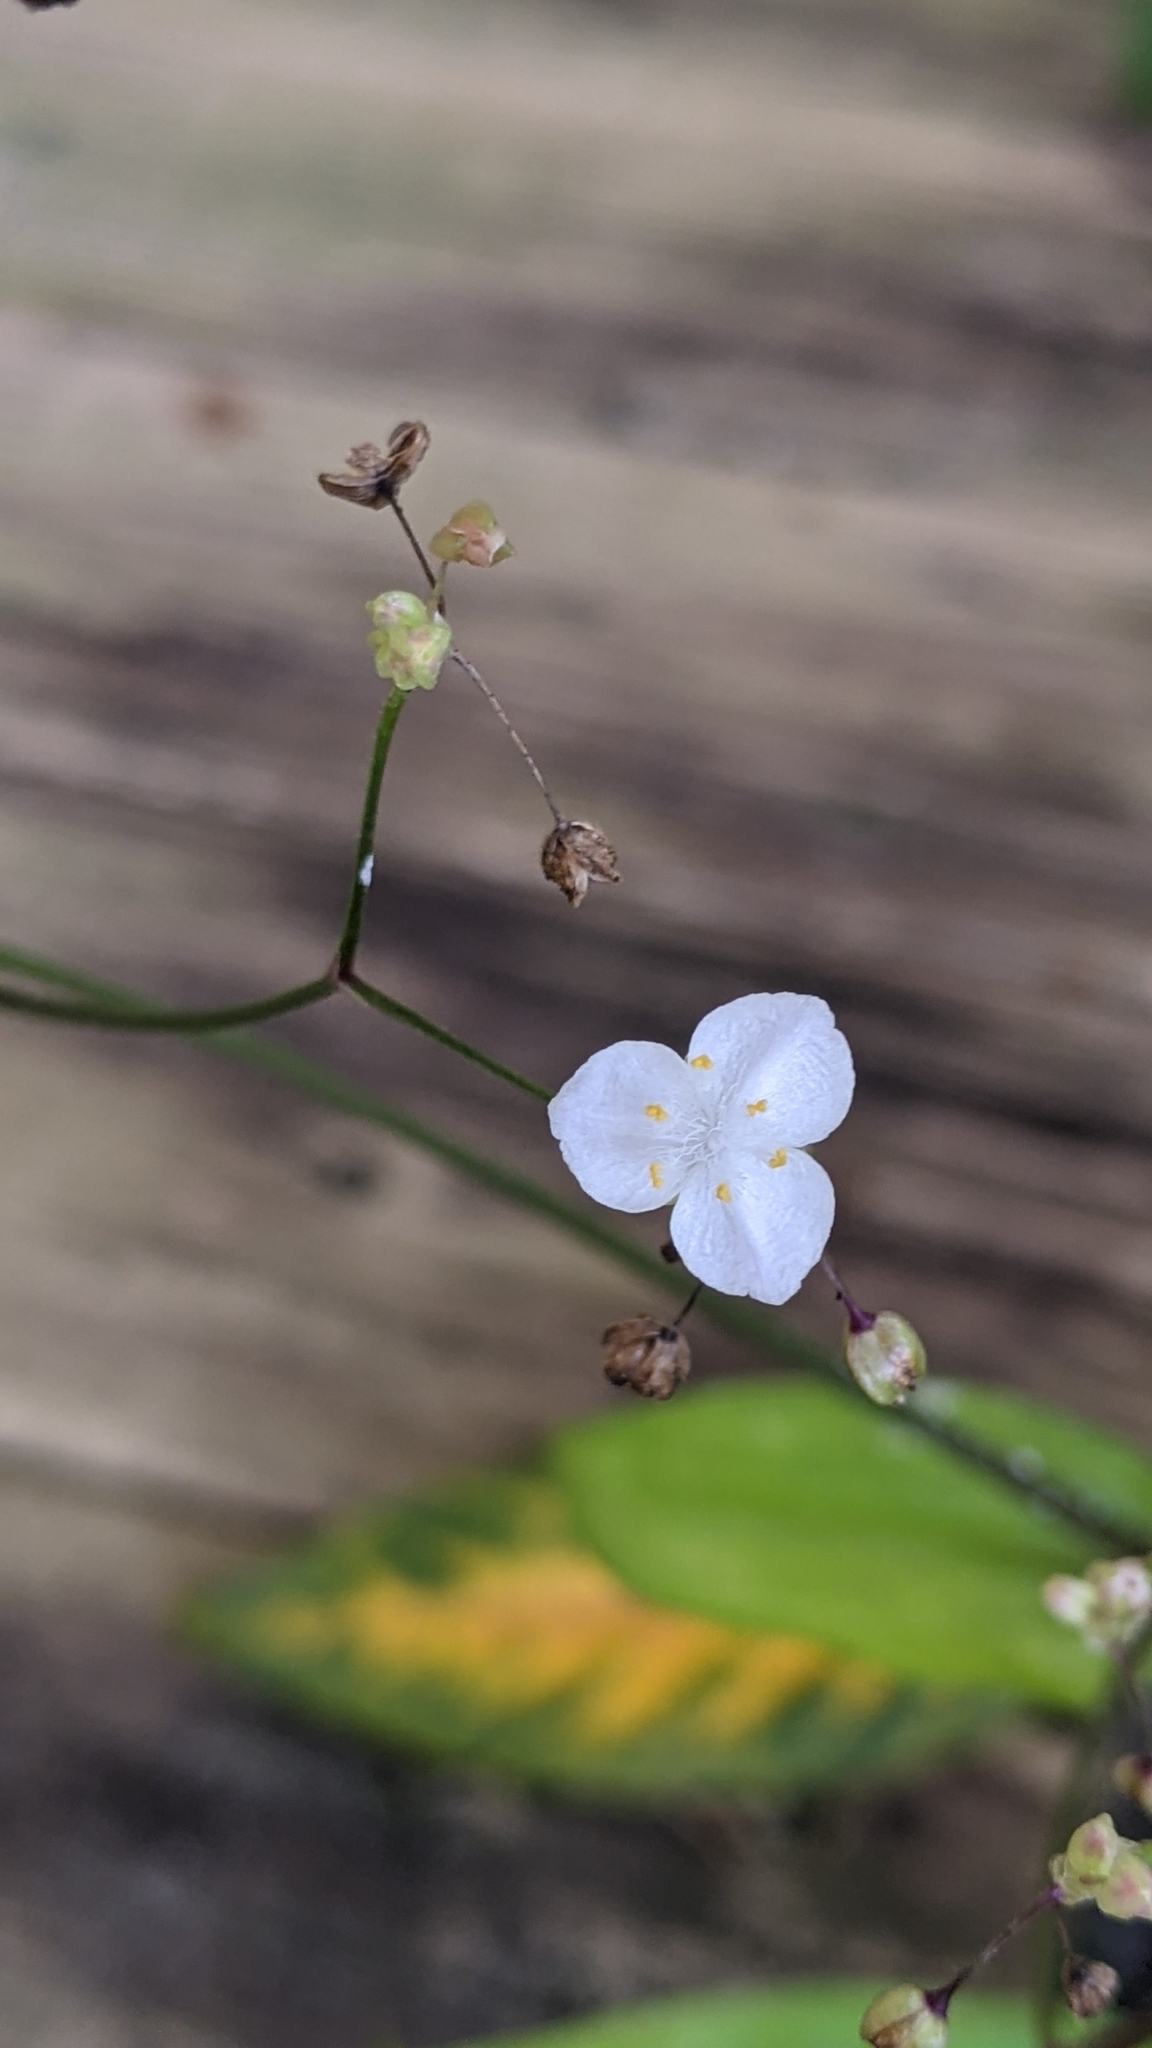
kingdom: Plantae
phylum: Tracheophyta
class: Liliopsida
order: Commelinales
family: Commelinaceae
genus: Gibasis
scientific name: Gibasis pellucida
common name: Dotted bridalveil
